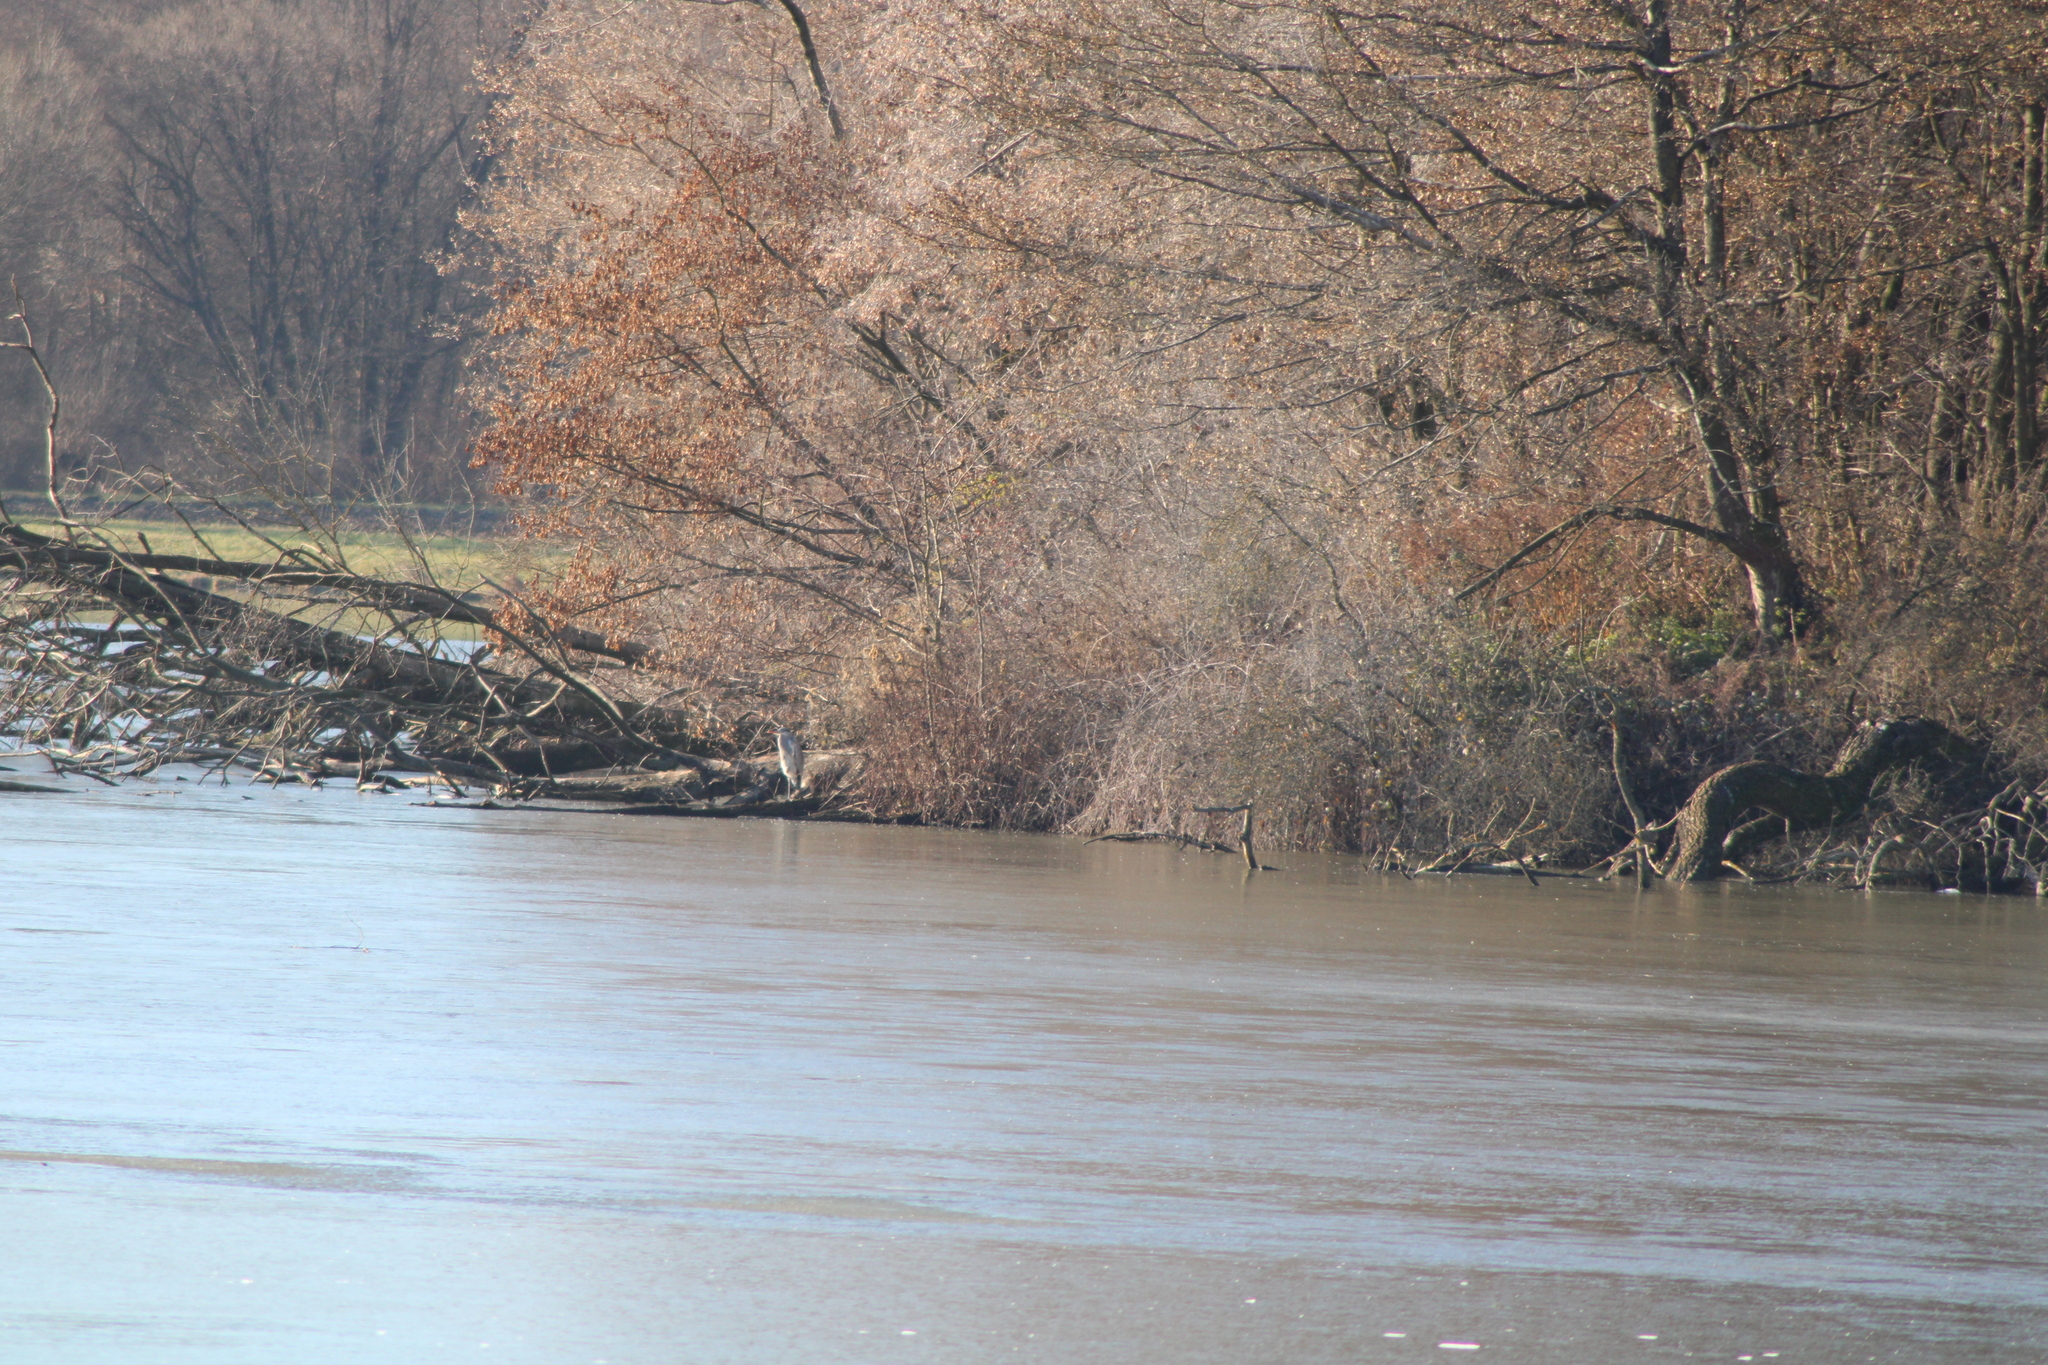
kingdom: Animalia
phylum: Chordata
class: Aves
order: Pelecaniformes
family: Ardeidae
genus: Ardea
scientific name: Ardea cinerea
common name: Grey heron
